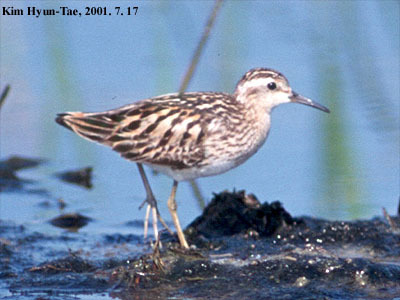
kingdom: Animalia
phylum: Chordata
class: Aves
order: Charadriiformes
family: Scolopacidae
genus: Calidris
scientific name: Calidris acuminata
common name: Sharp-tailed sandpiper
